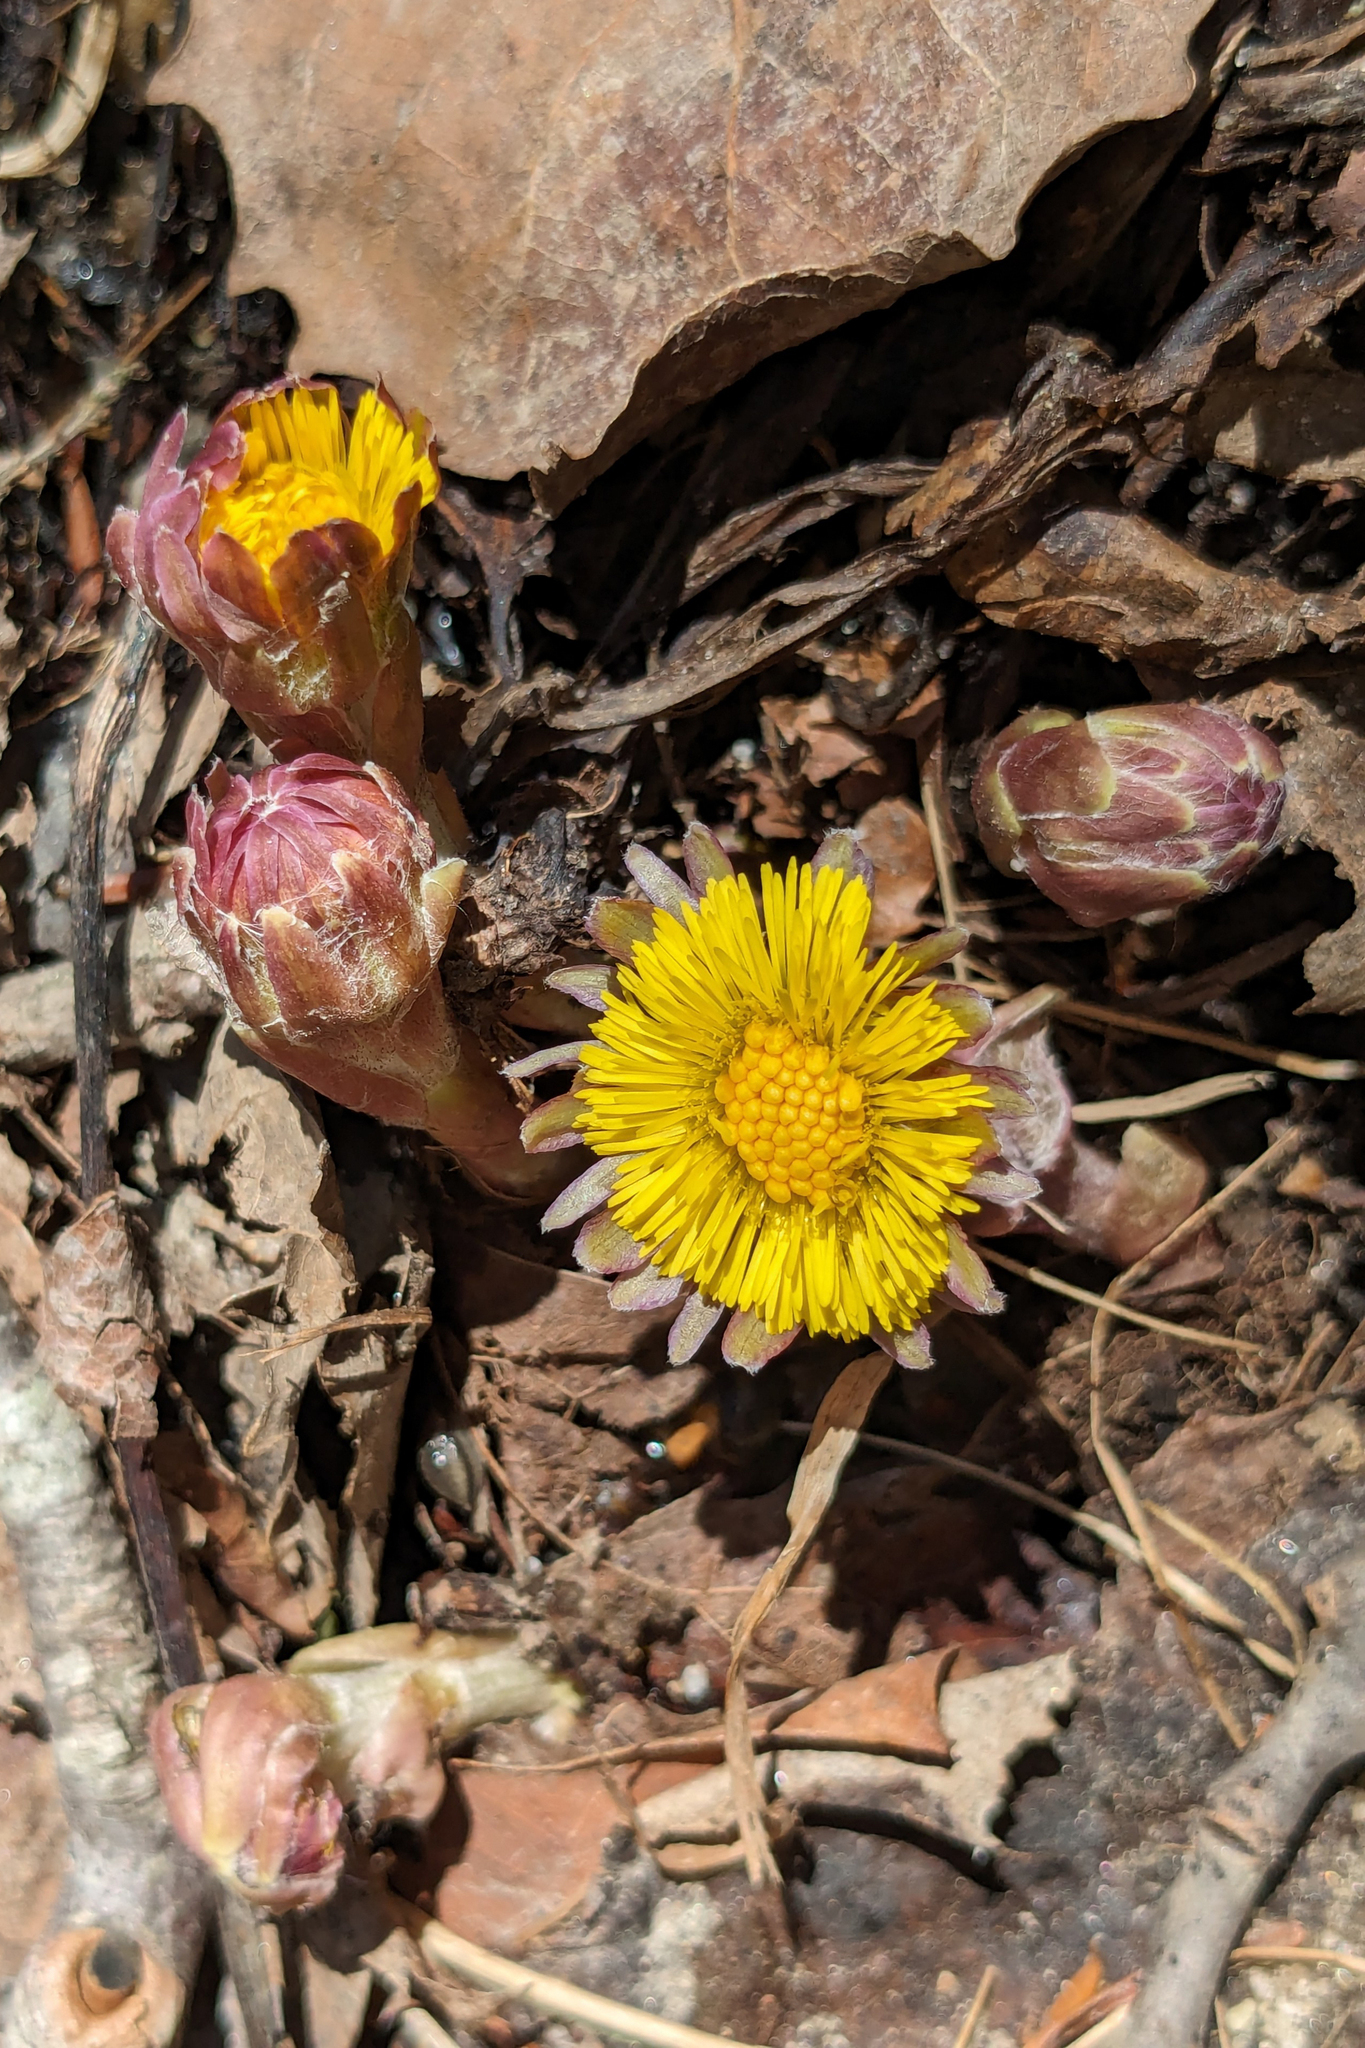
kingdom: Plantae
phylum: Tracheophyta
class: Magnoliopsida
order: Asterales
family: Asteraceae
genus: Tussilago
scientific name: Tussilago farfara
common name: Coltsfoot
